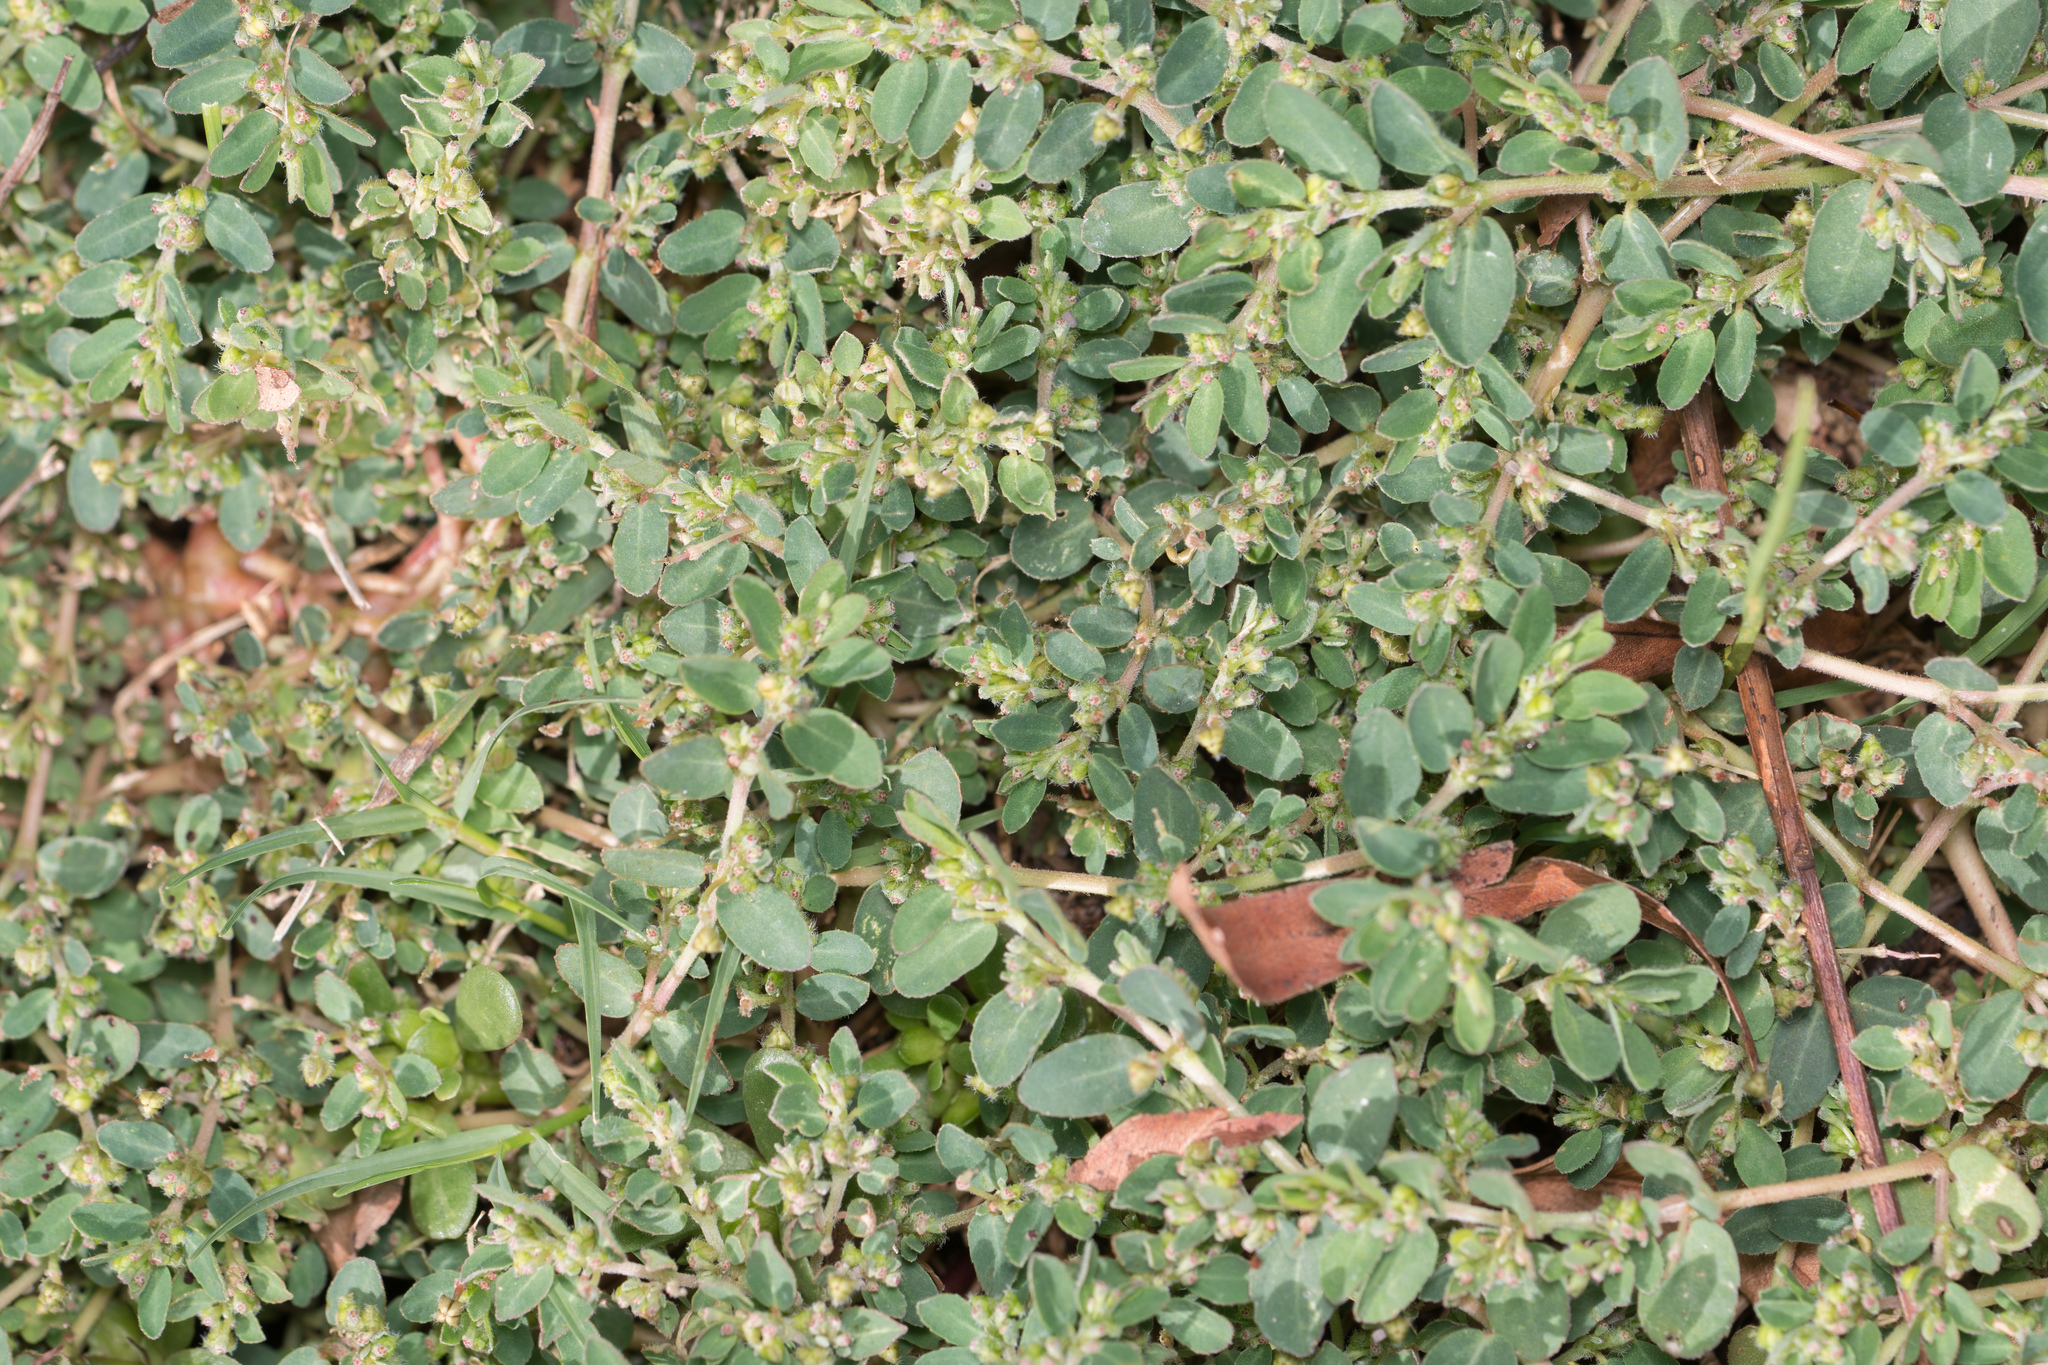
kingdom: Plantae
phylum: Tracheophyta
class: Magnoliopsida
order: Malpighiales
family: Euphorbiaceae
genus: Euphorbia
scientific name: Euphorbia prostrata
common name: Prostrate sandmat
